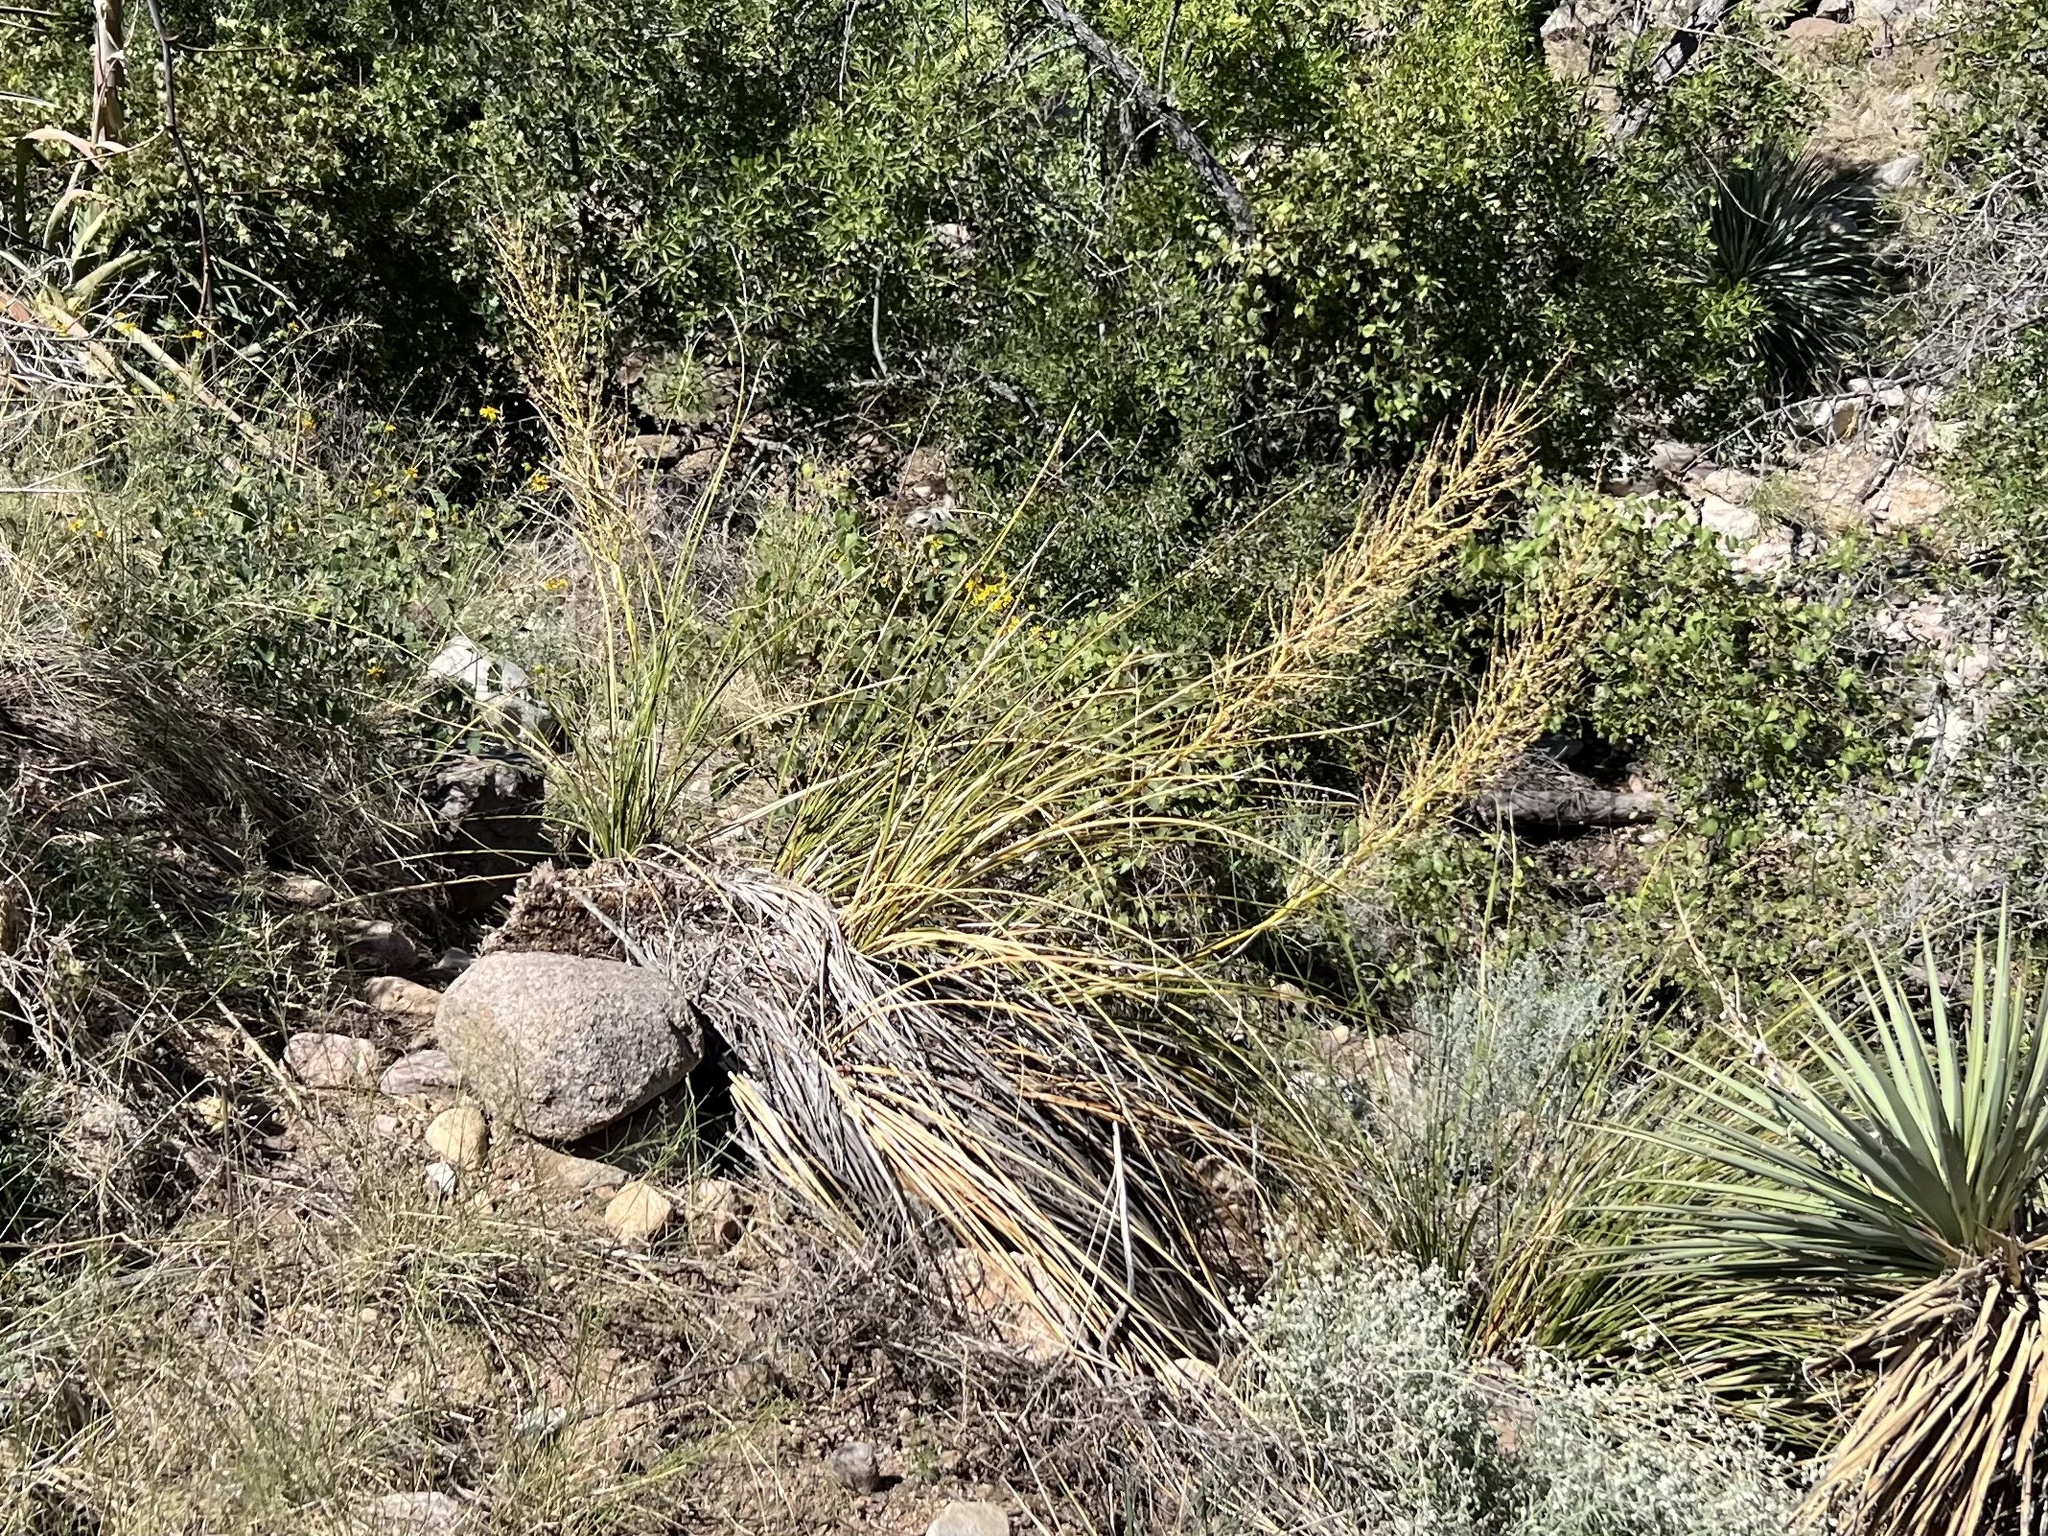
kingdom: Plantae
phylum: Tracheophyta
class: Liliopsida
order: Asparagales
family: Asparagaceae
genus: Nolina
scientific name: Nolina microcarpa
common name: Bear-grass
